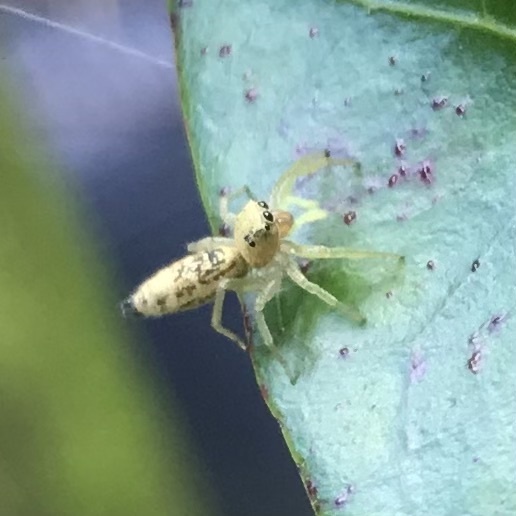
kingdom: Animalia
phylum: Arthropoda
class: Arachnida
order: Araneae
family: Salticidae
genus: Cosmophasis
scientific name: Cosmophasis lami
